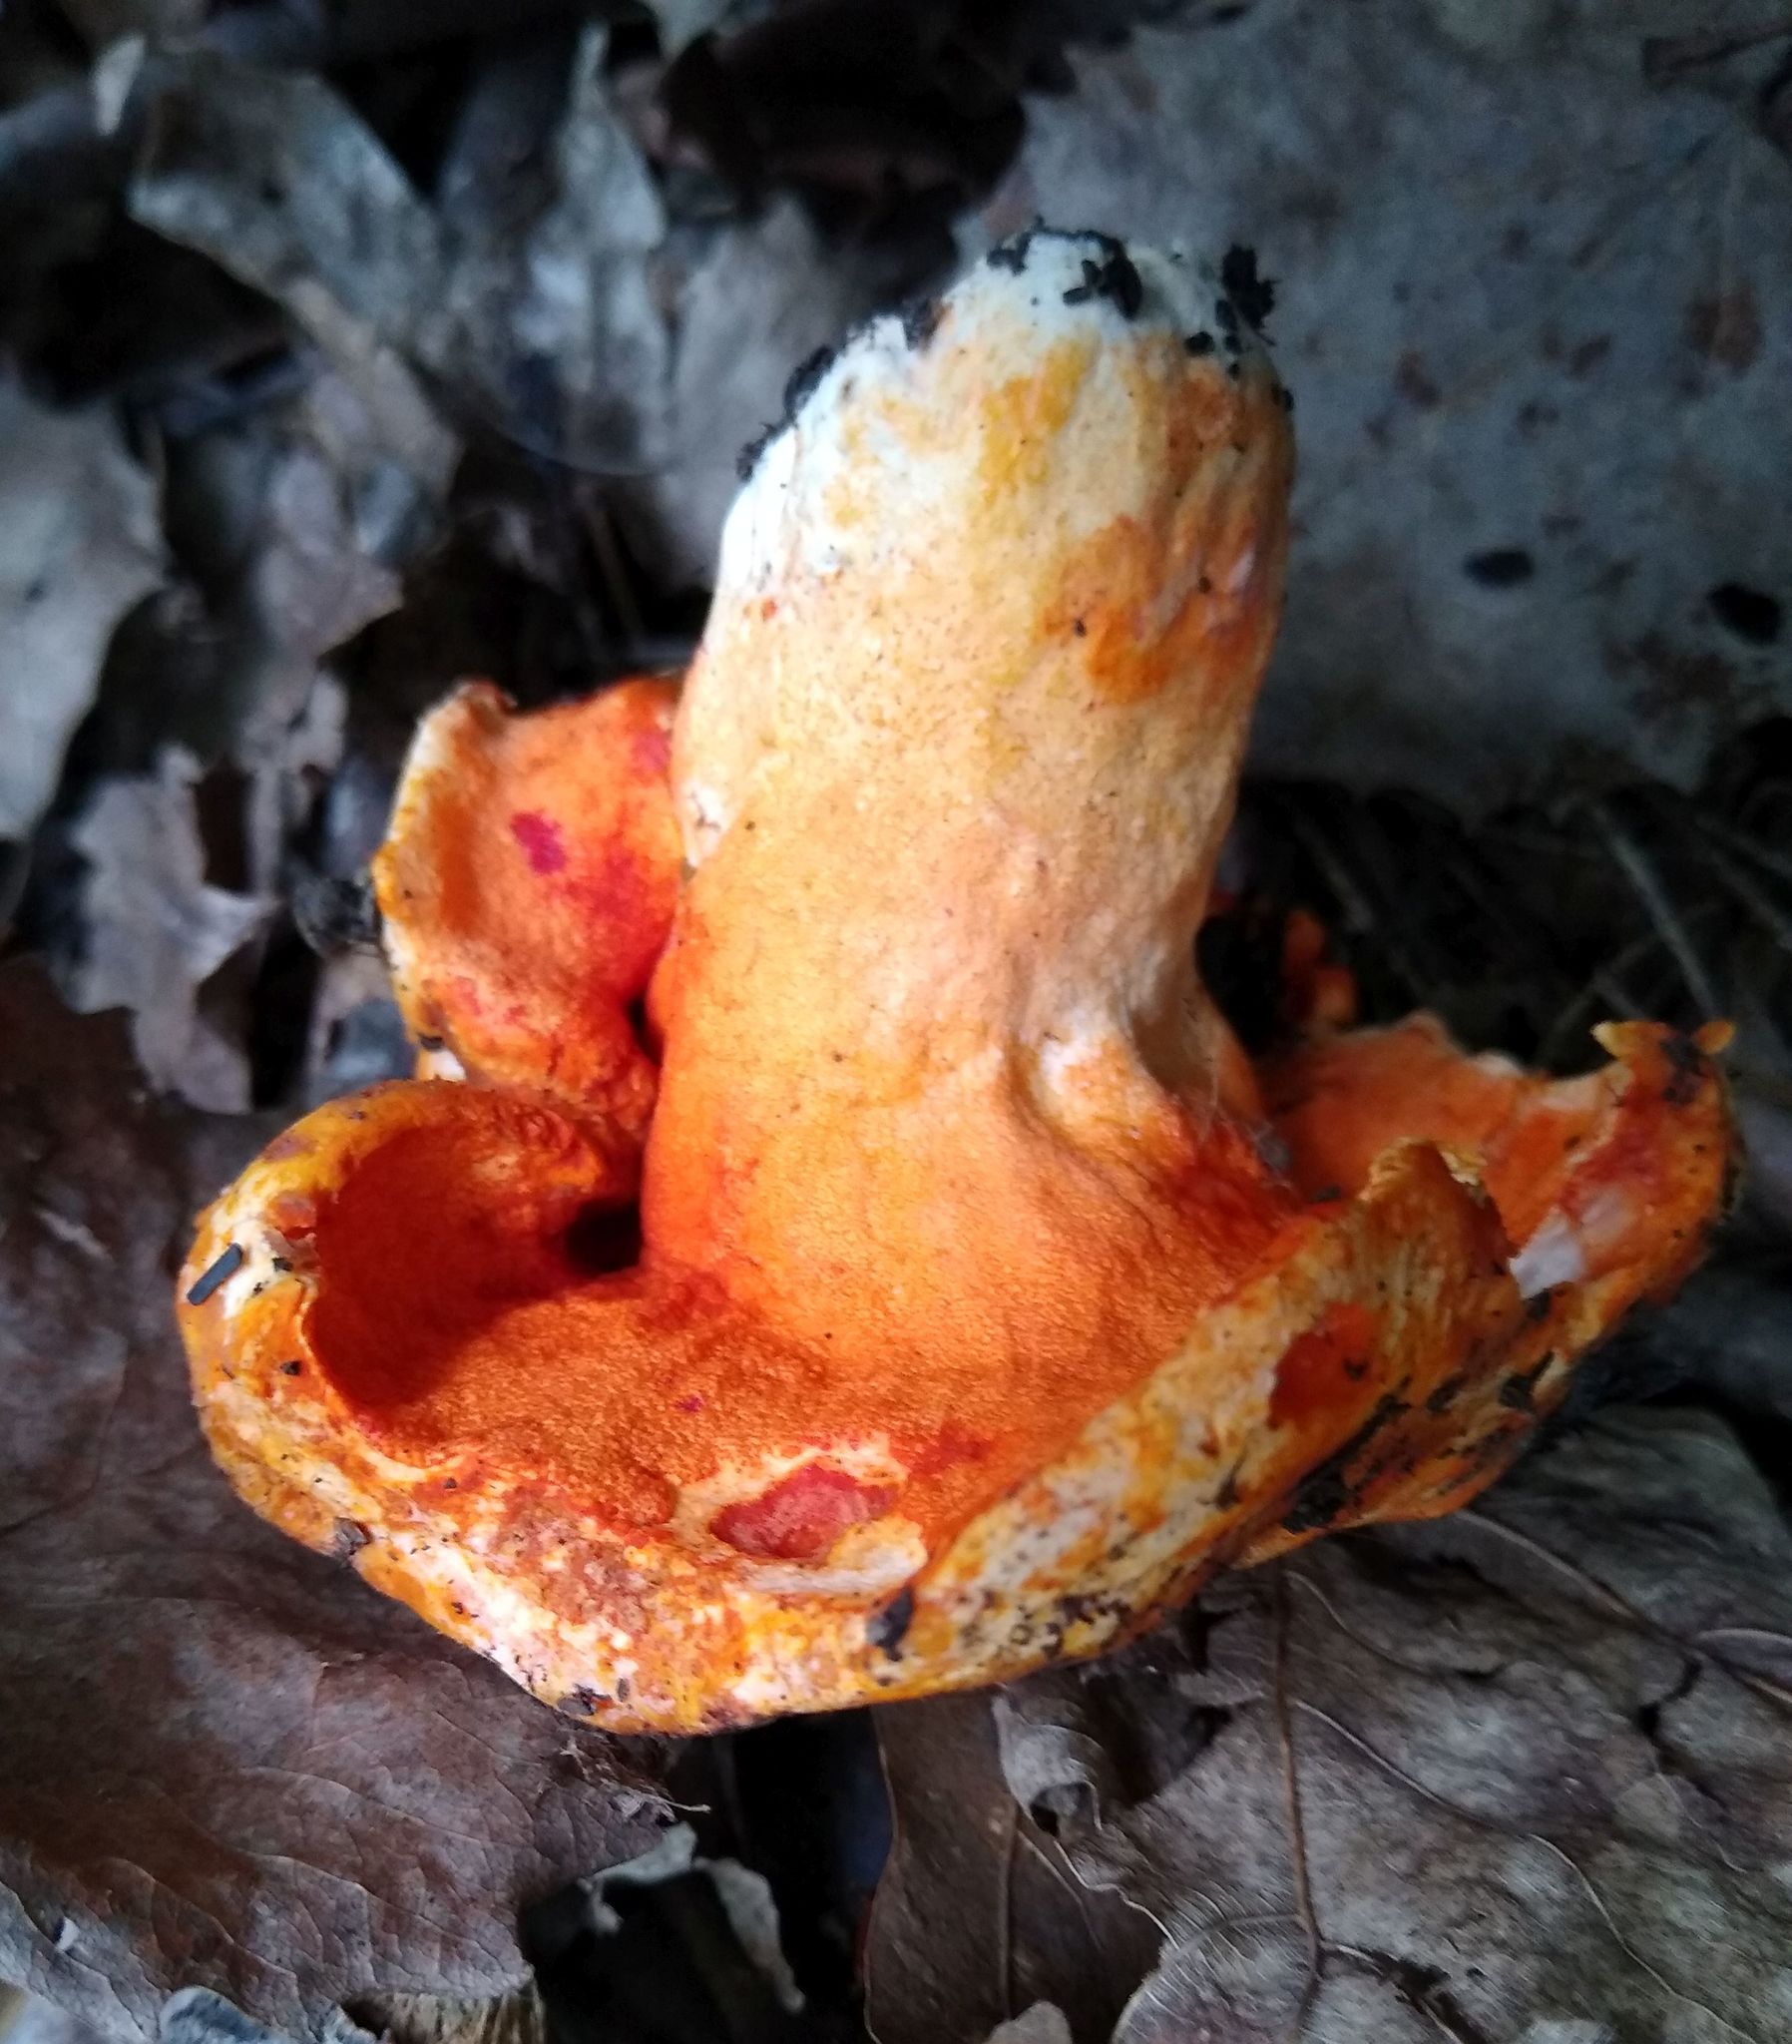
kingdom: Fungi
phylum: Ascomycota
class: Sordariomycetes
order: Hypocreales
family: Hypocreaceae
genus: Hypomyces
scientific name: Hypomyces lactifluorum
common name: Lobster mushroom
